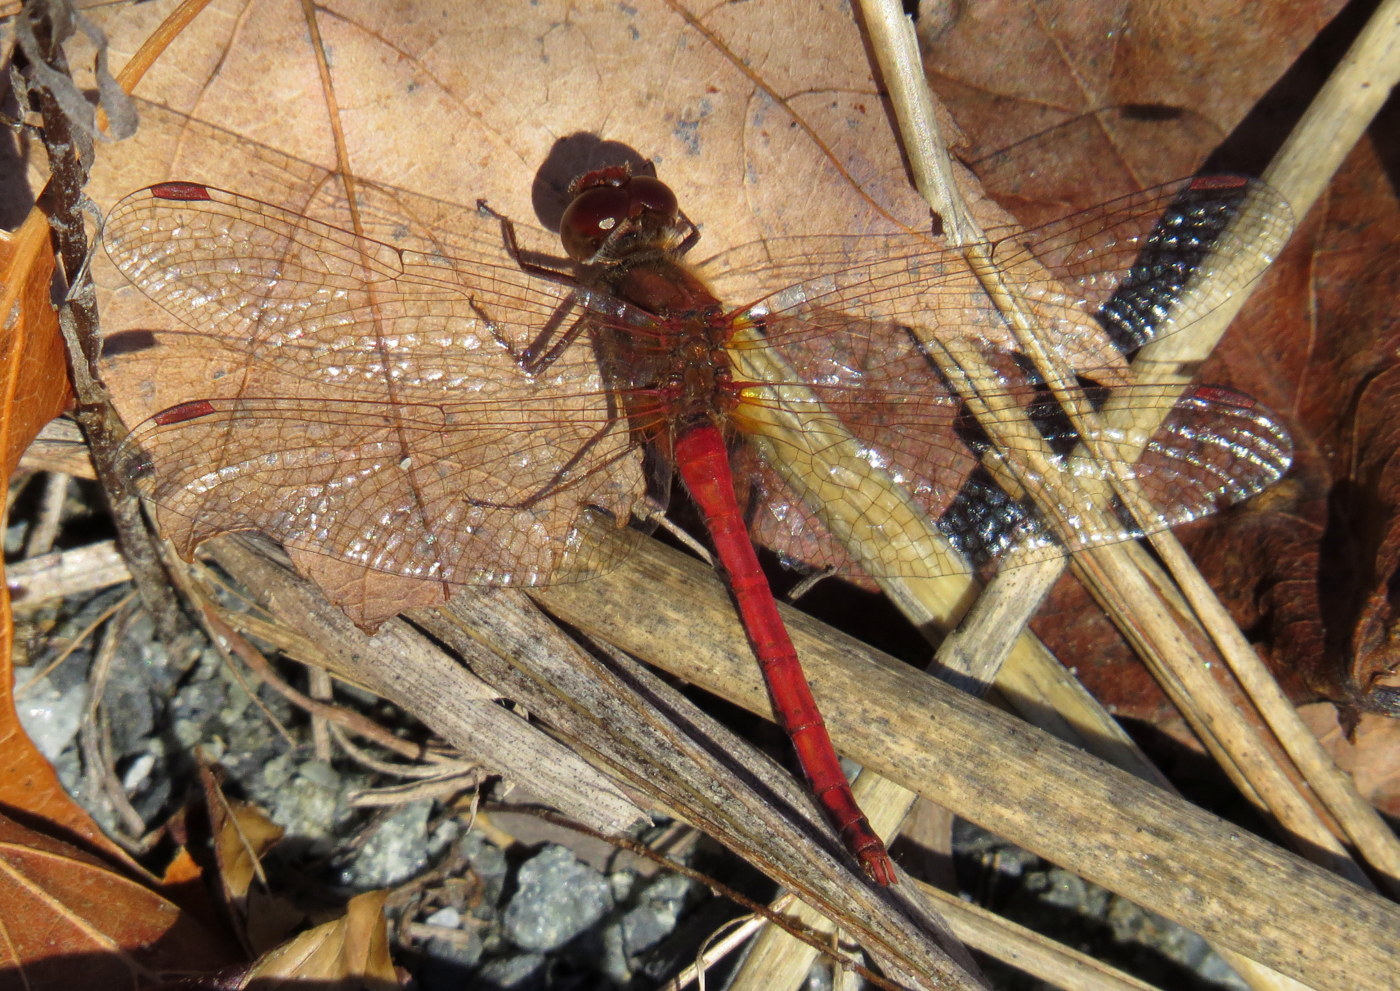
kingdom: Animalia
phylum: Arthropoda
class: Insecta
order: Odonata
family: Libellulidae
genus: Sympetrum
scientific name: Sympetrum vicinum
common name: Autumn meadowhawk
